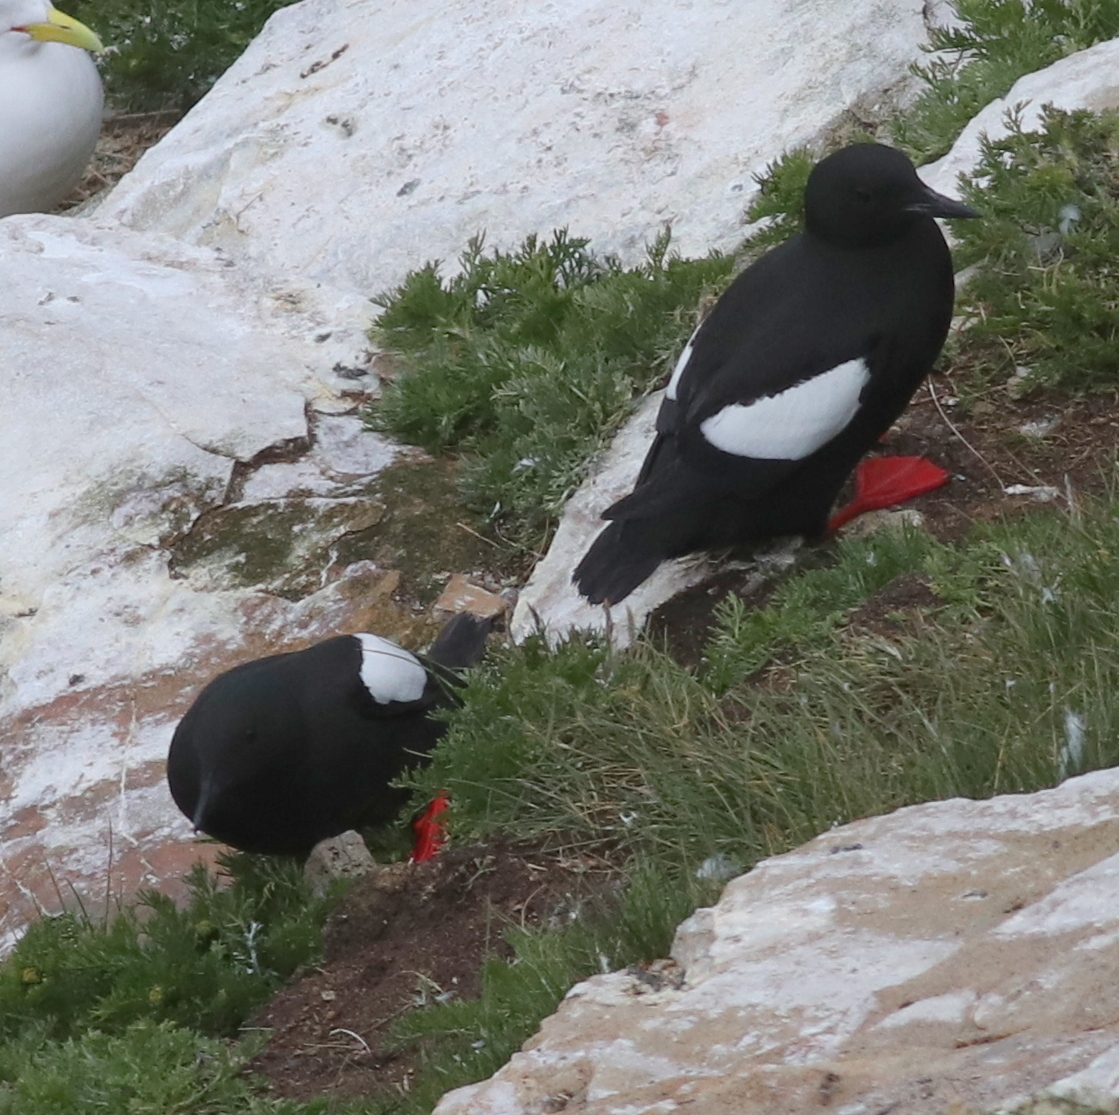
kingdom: Animalia
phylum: Chordata
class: Aves
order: Charadriiformes
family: Alcidae
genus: Cepphus
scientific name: Cepphus grylle
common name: Black guillemot
